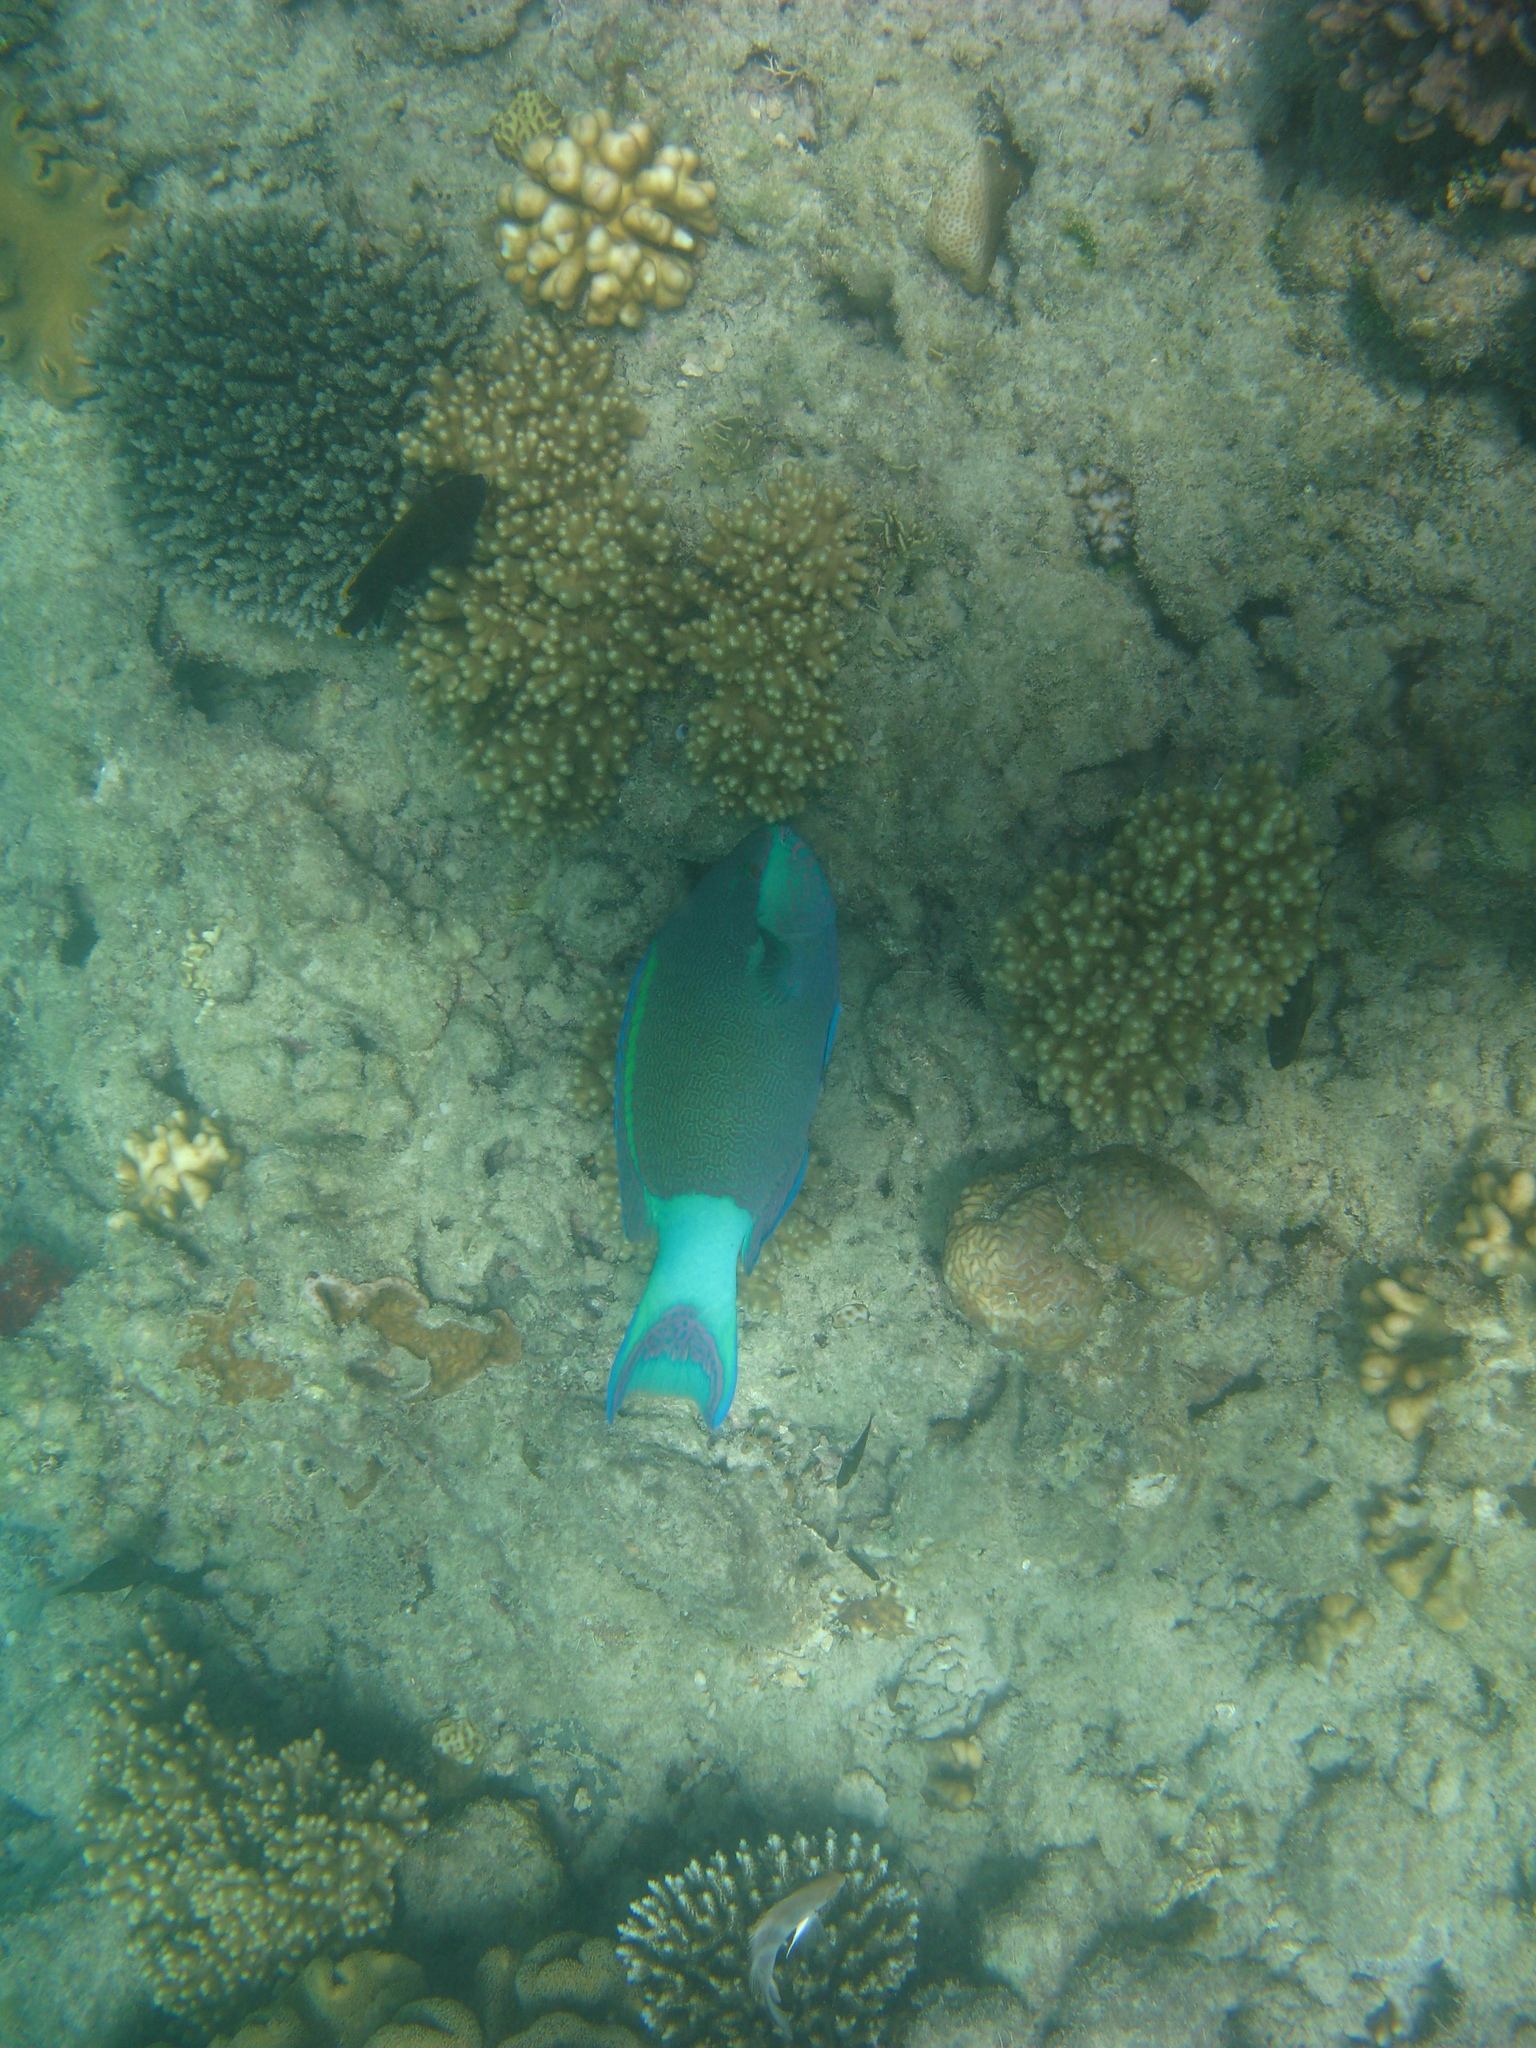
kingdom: Animalia
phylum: Chordata
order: Perciformes
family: Scaridae
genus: Scarus
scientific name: Scarus frenatus
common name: Bridled parrotfish
